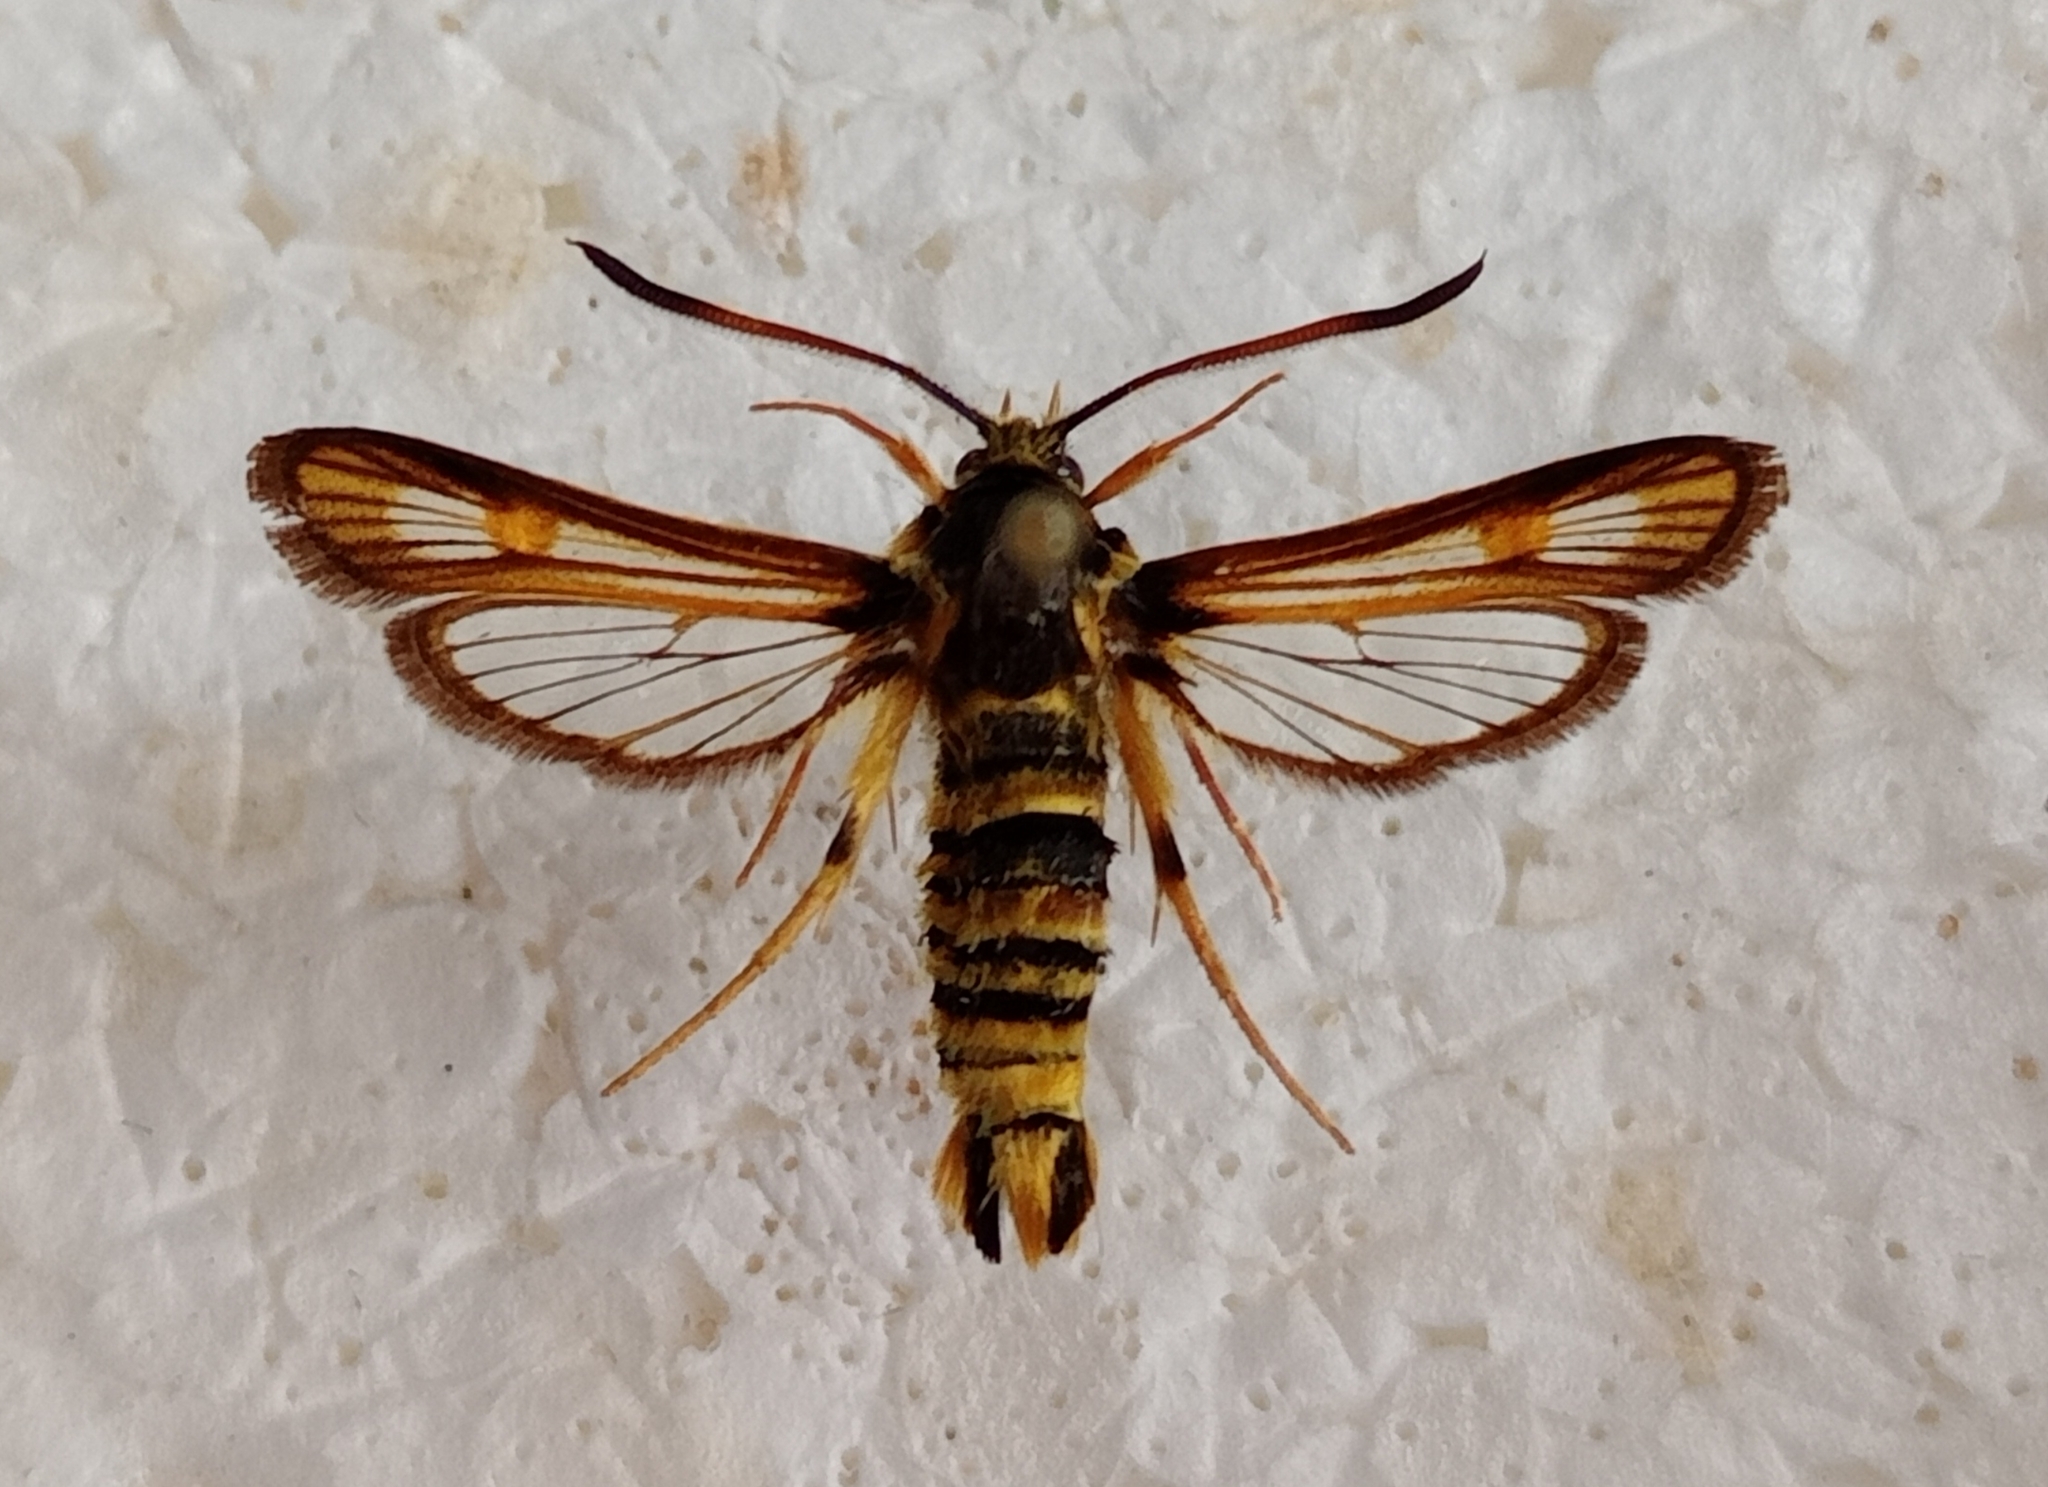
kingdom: Animalia
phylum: Arthropoda
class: Insecta
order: Lepidoptera
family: Sesiidae
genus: Bembecia
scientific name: Bembecia tshimgana
